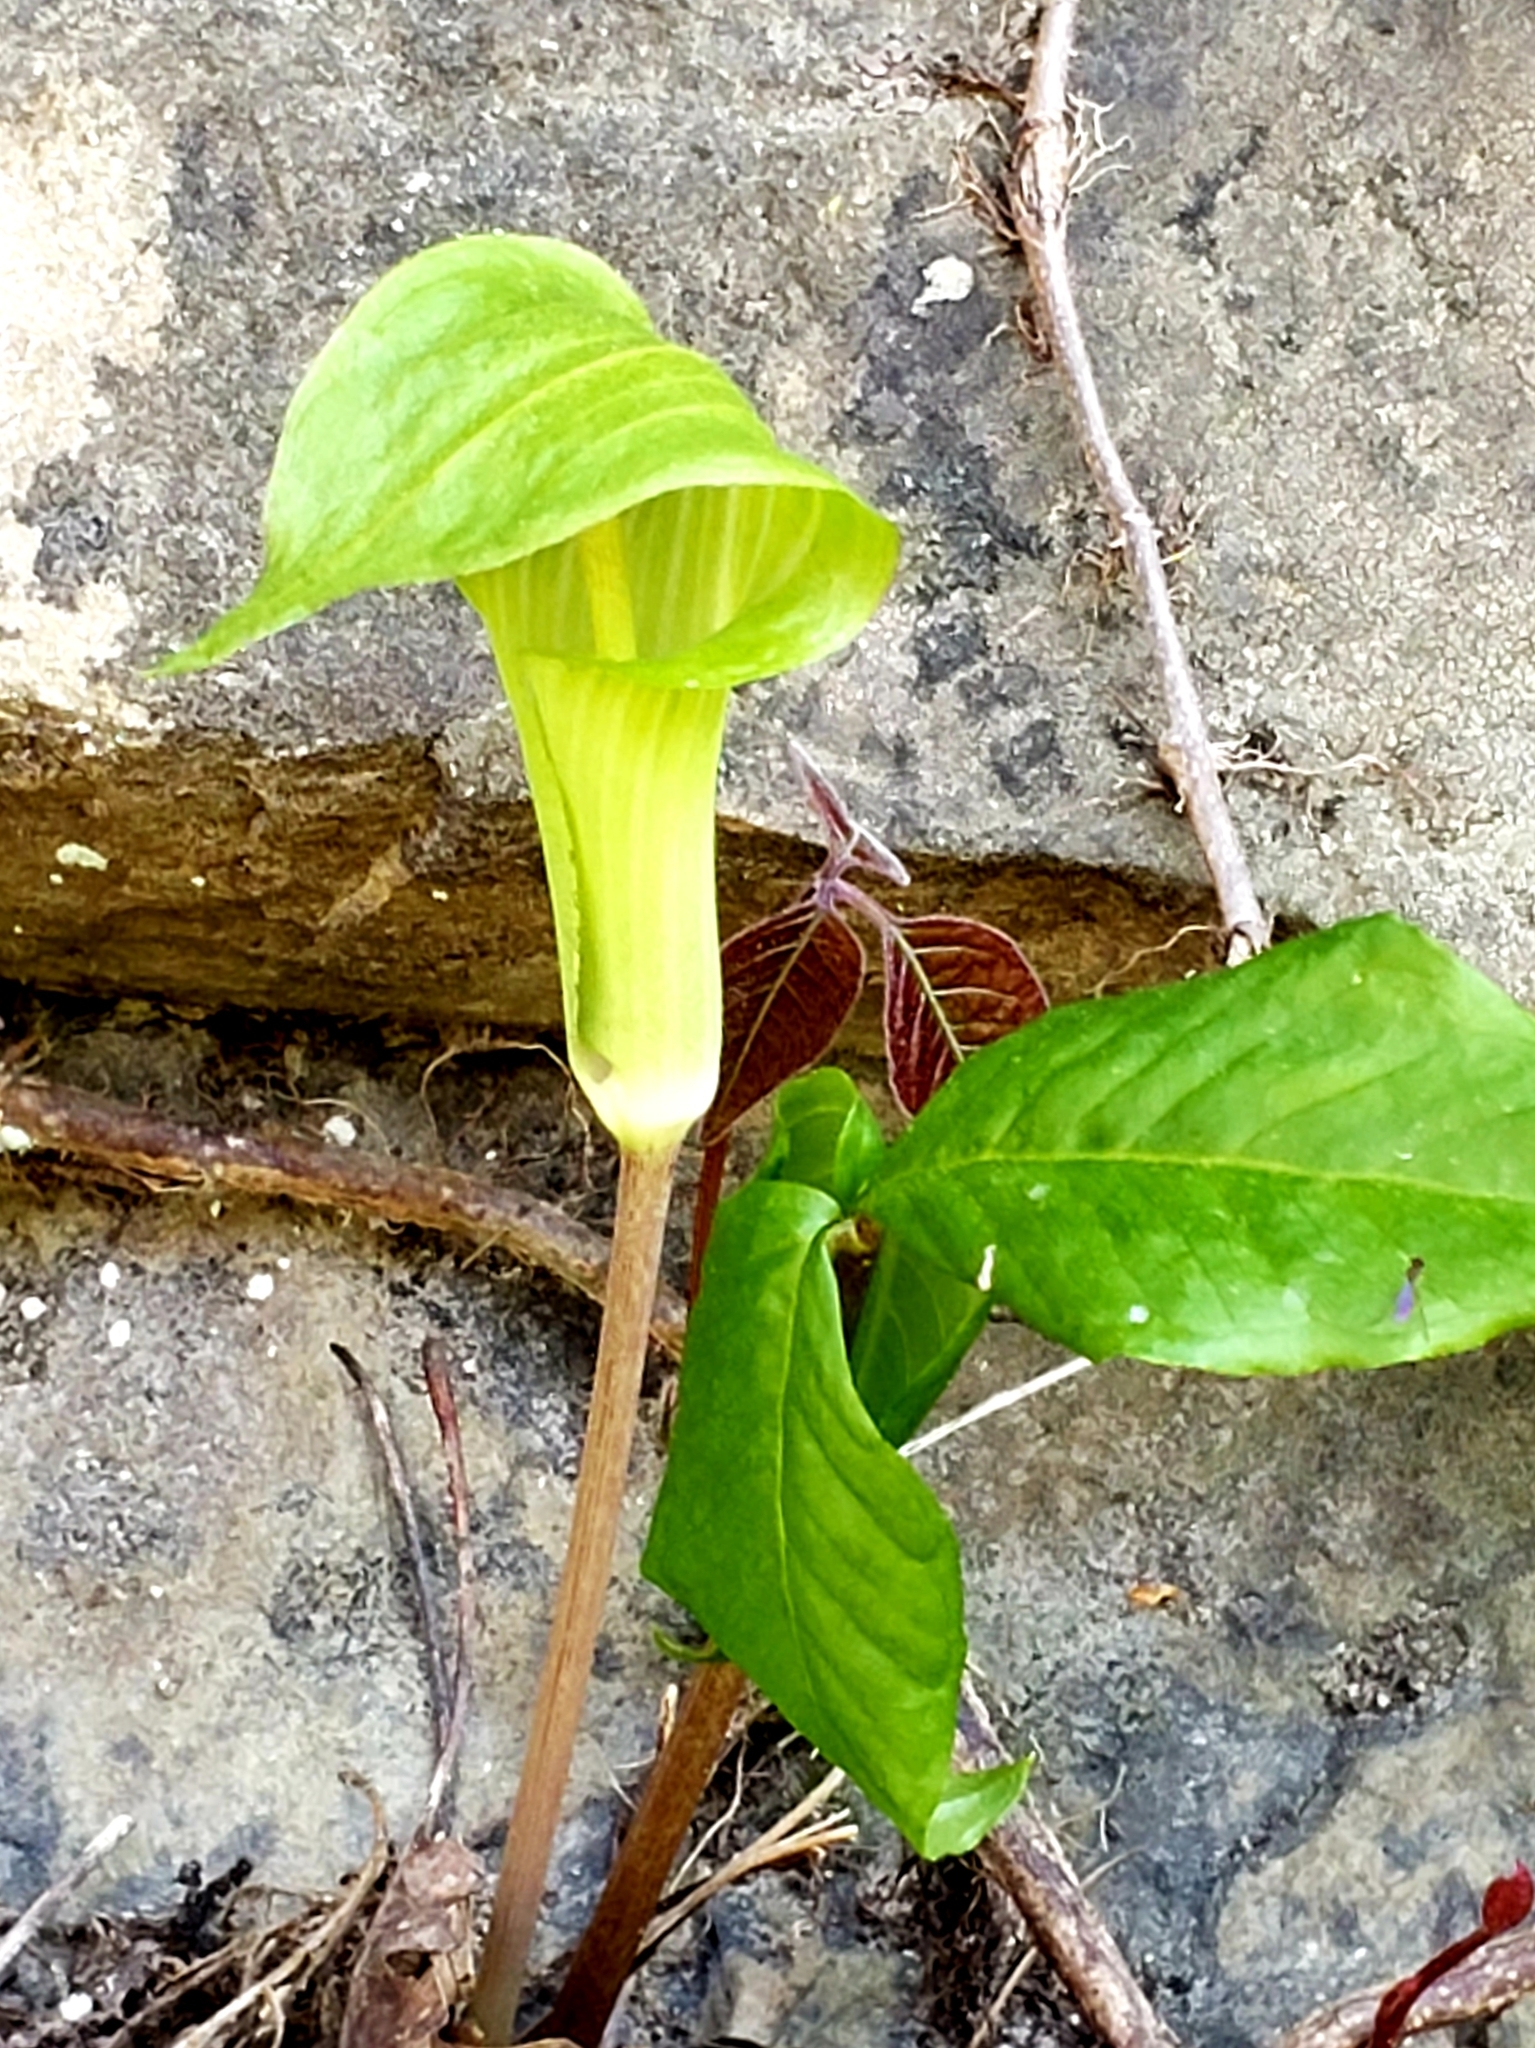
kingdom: Plantae
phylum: Tracheophyta
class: Liliopsida
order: Alismatales
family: Araceae
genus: Arisaema
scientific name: Arisaema triphyllum
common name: Jack-in-the-pulpit
